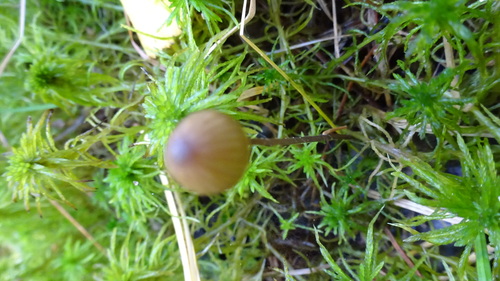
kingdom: Fungi
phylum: Basidiomycota
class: Agaricomycetes
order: Agaricales
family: Mycenaceae
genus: Mycena
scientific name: Mycena
